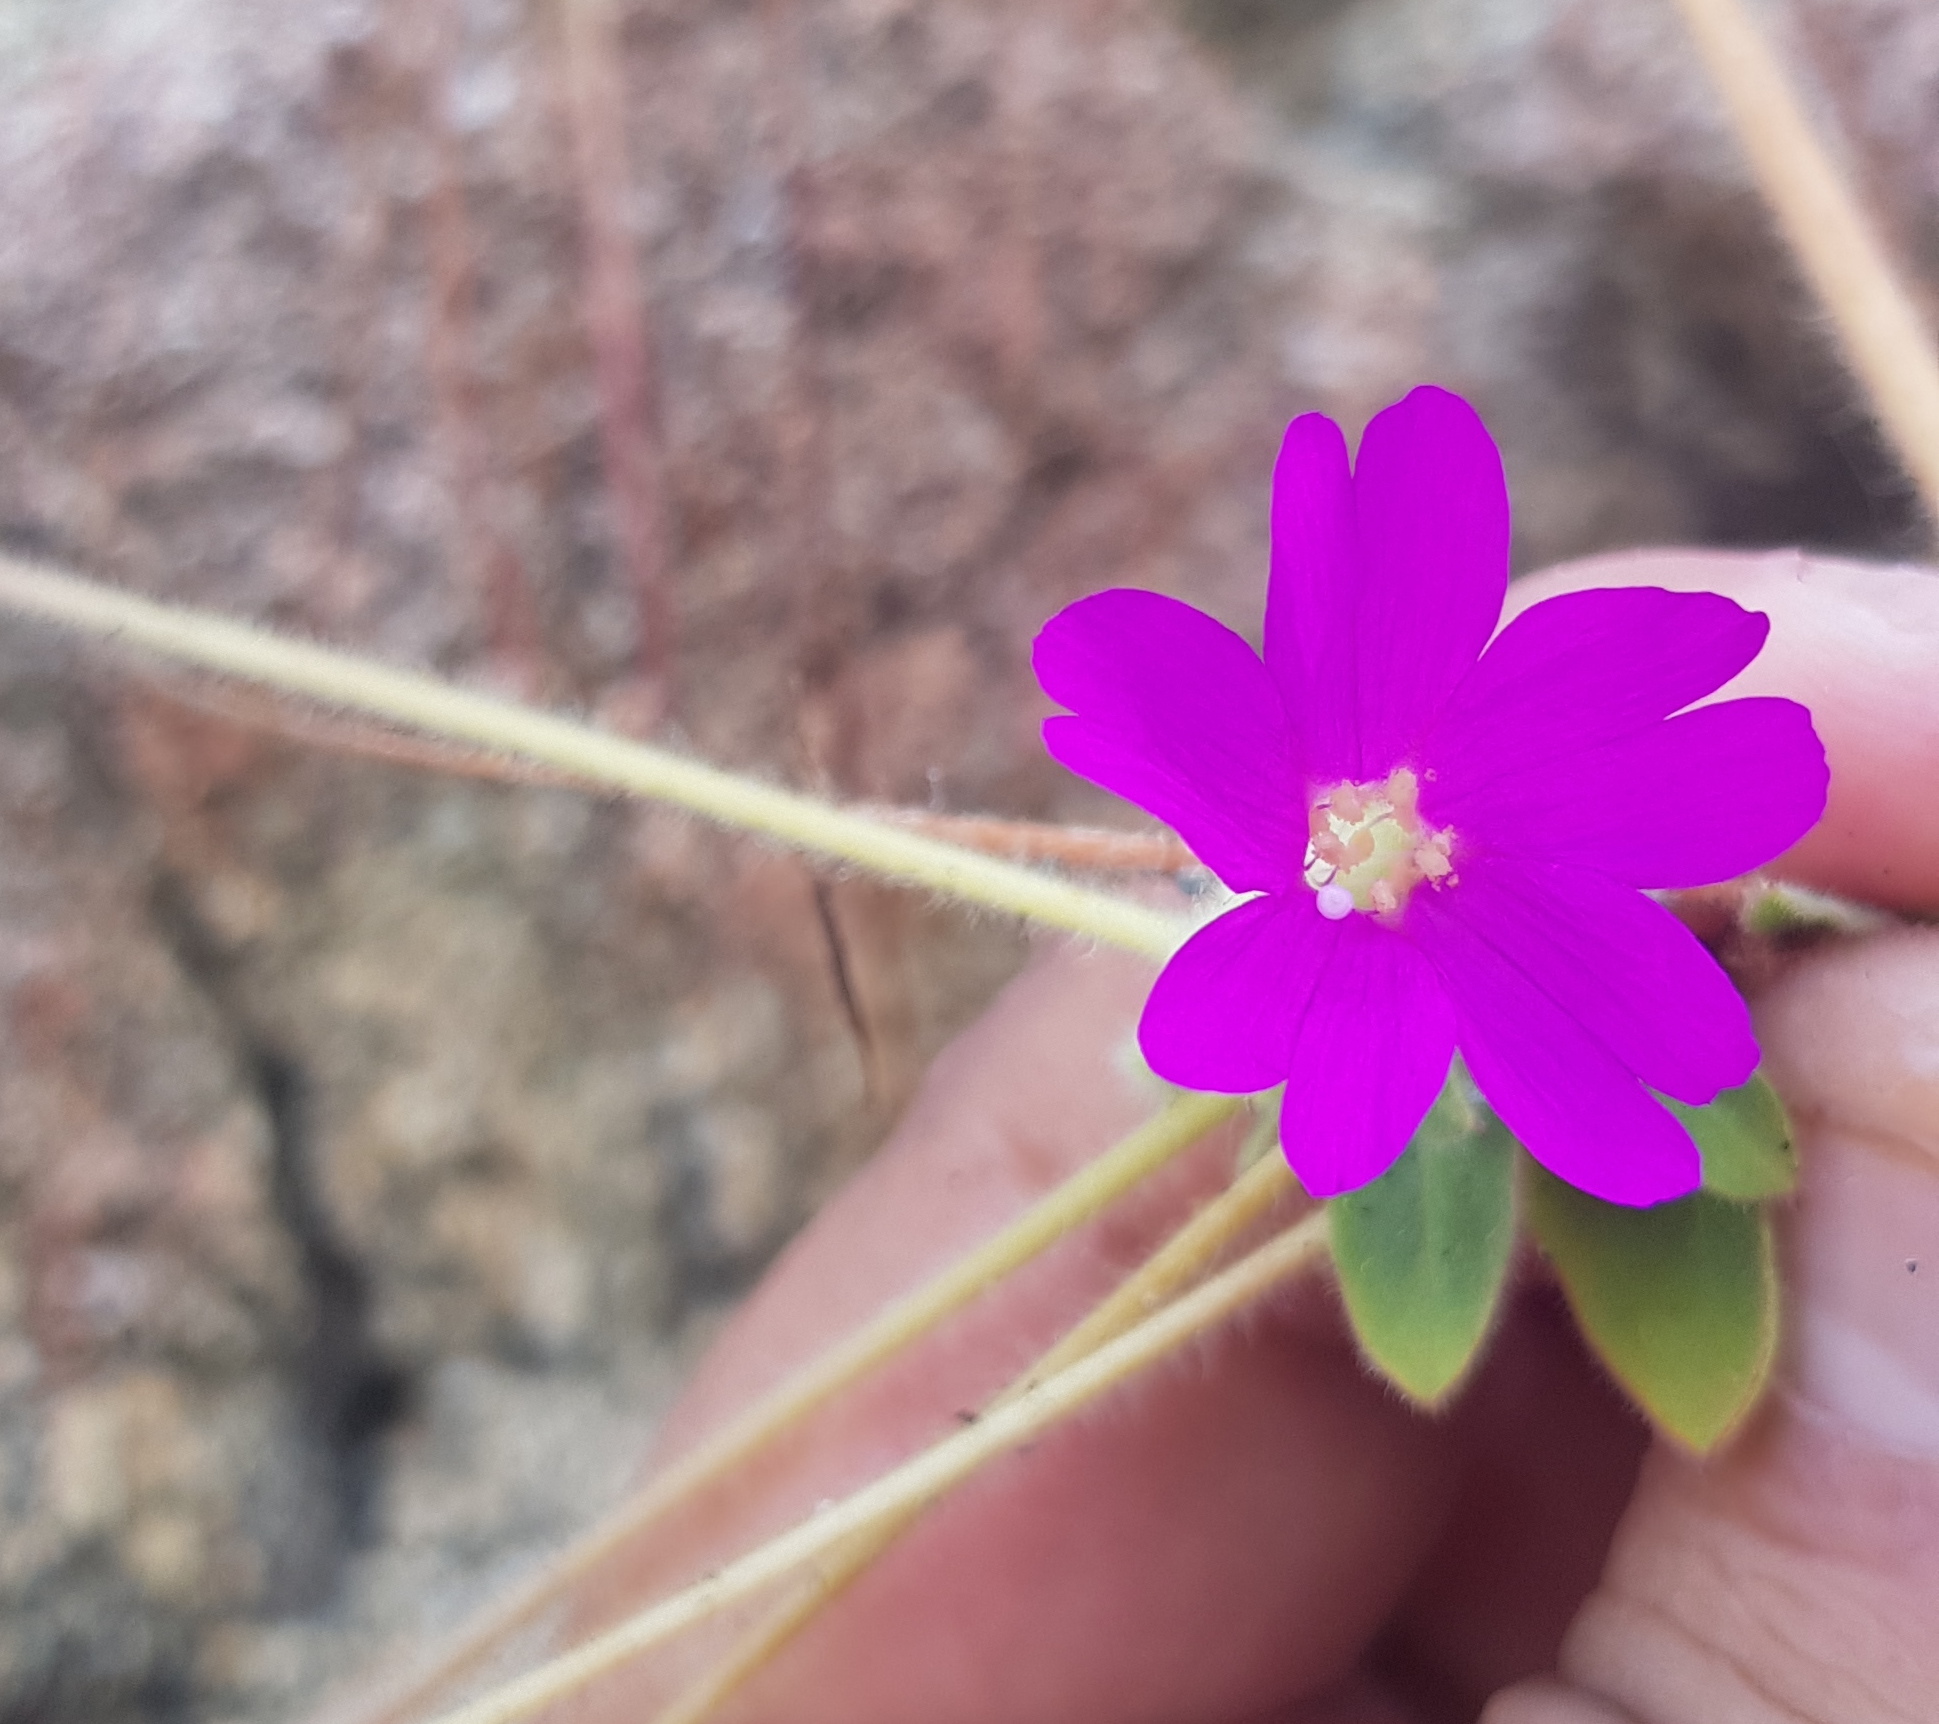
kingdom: Plantae
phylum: Tracheophyta
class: Magnoliopsida
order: Caryophyllales
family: Nyctaginaceae
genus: Okenia
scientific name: Okenia hypogaea
